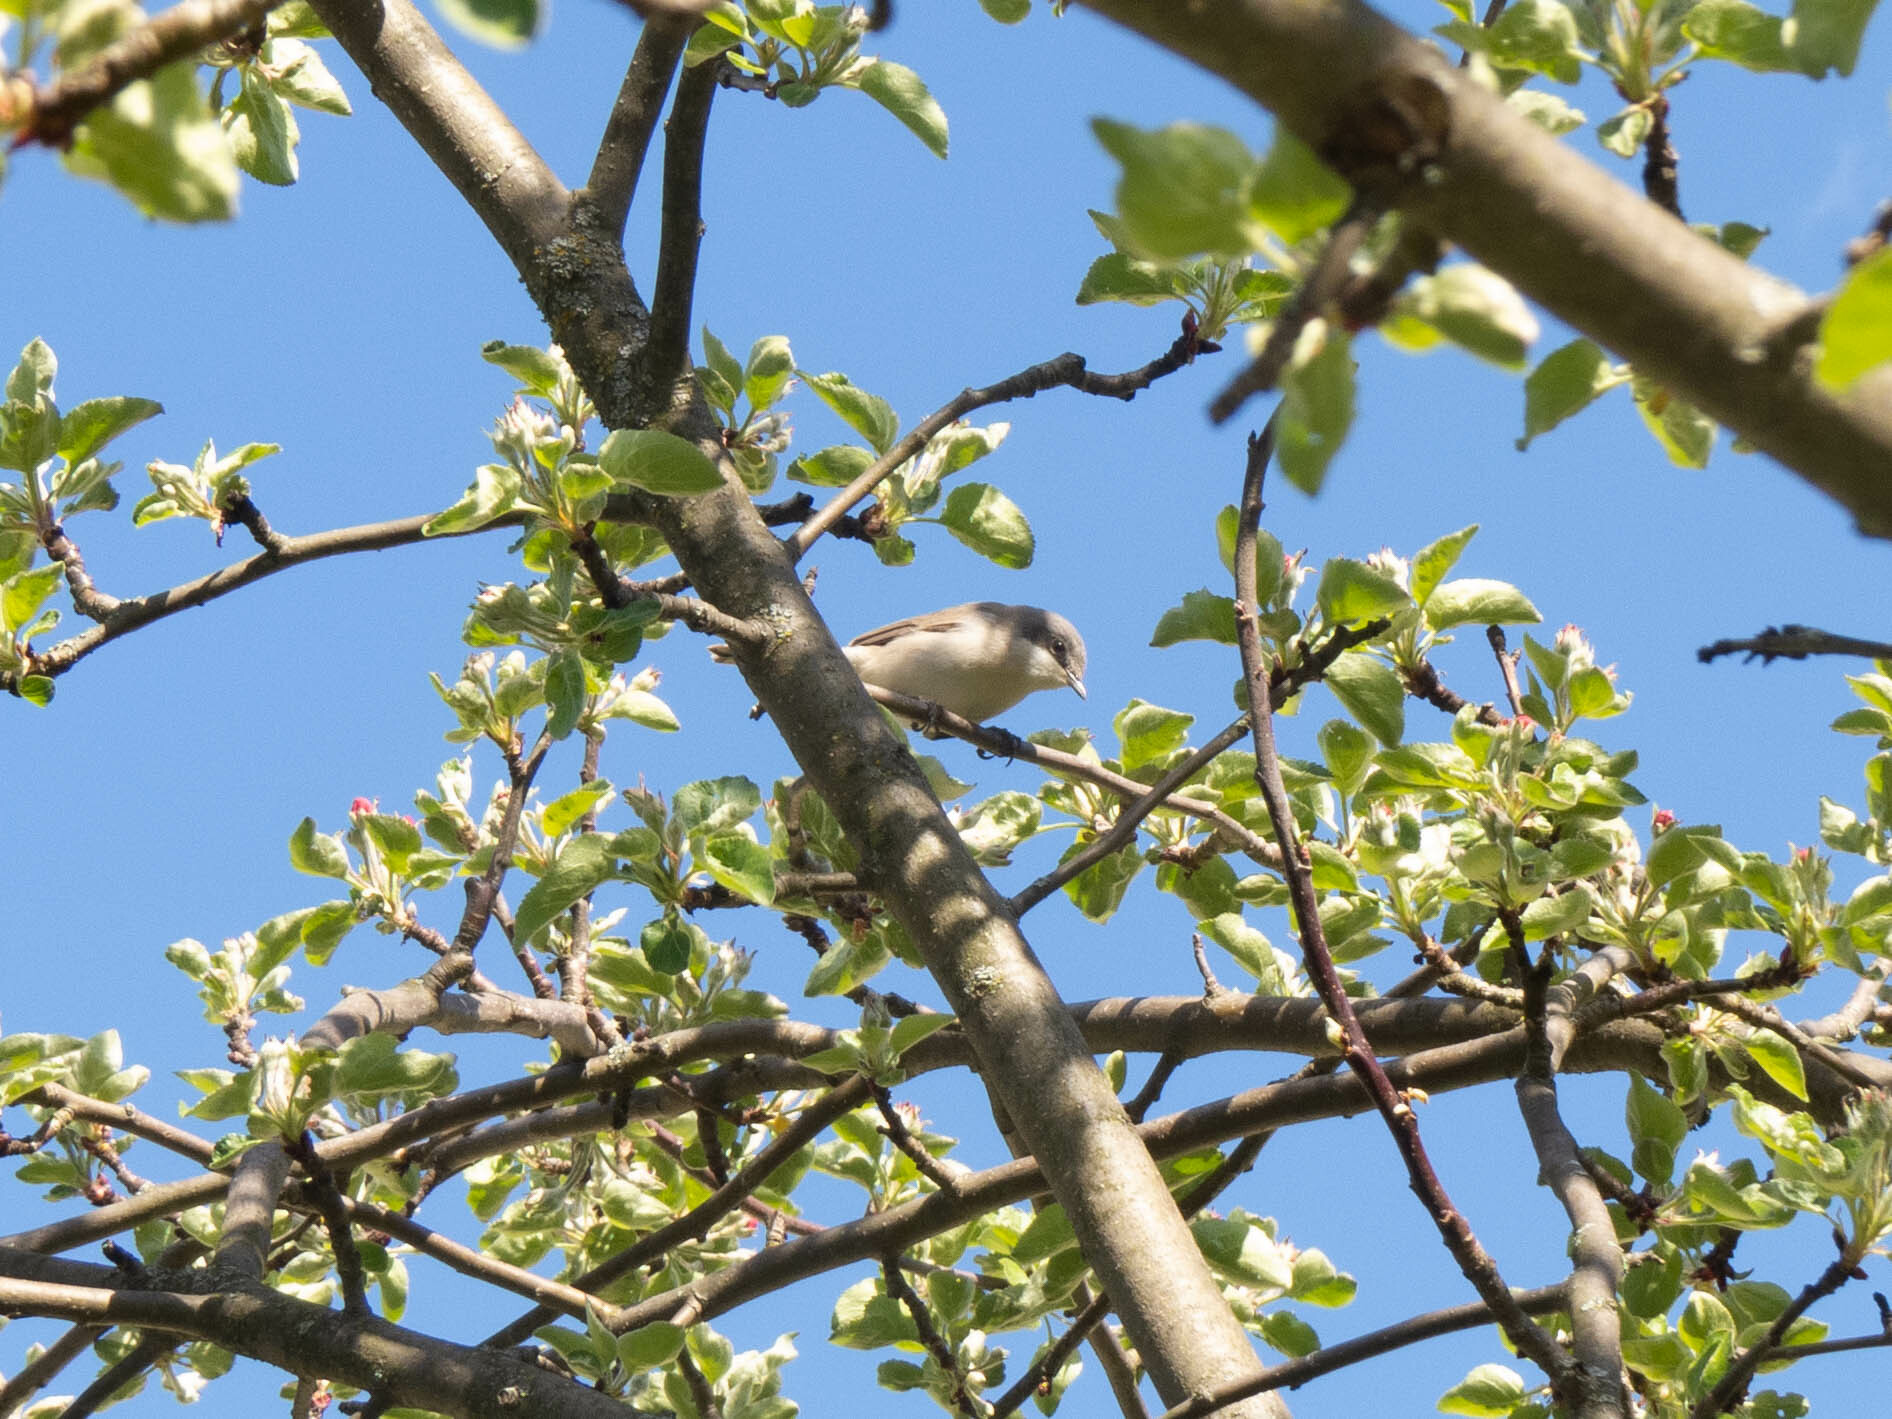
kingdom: Animalia
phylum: Chordata
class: Aves
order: Passeriformes
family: Sylviidae
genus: Sylvia
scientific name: Sylvia curruca
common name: Lesser whitethroat
